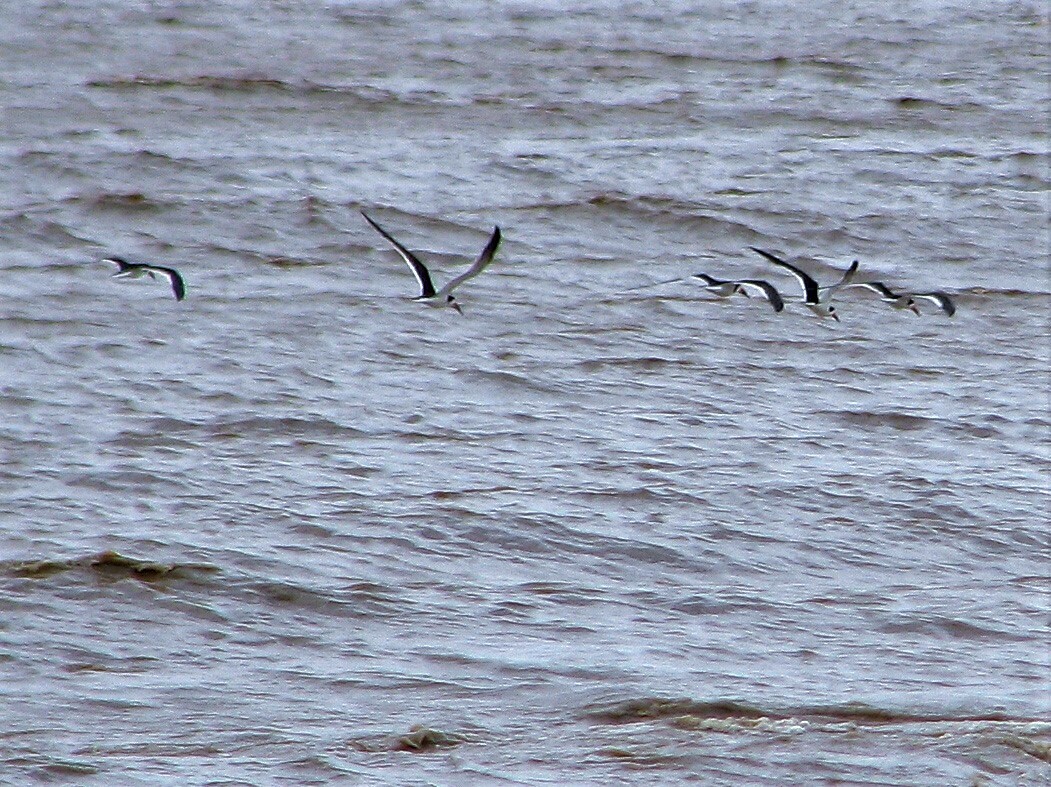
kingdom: Animalia
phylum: Chordata
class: Aves
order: Charadriiformes
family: Laridae
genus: Rynchops
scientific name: Rynchops niger
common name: Black skimmer
